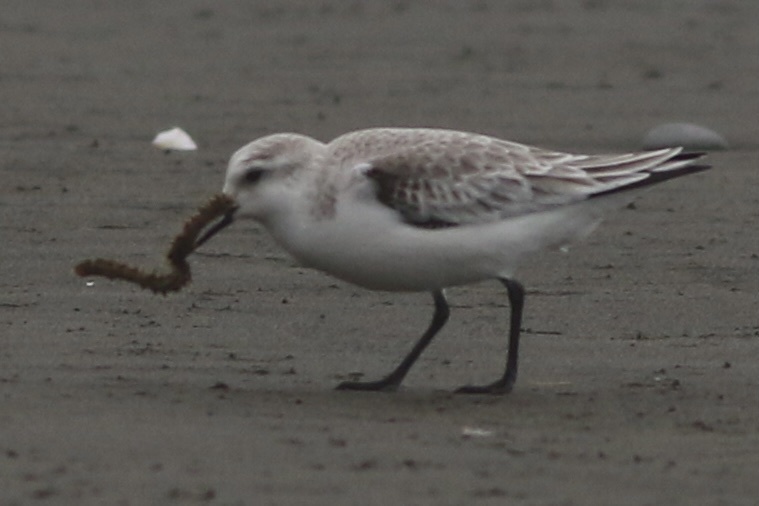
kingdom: Animalia
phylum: Chordata
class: Aves
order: Charadriiformes
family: Scolopacidae
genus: Calidris
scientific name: Calidris alba
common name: Sanderling
